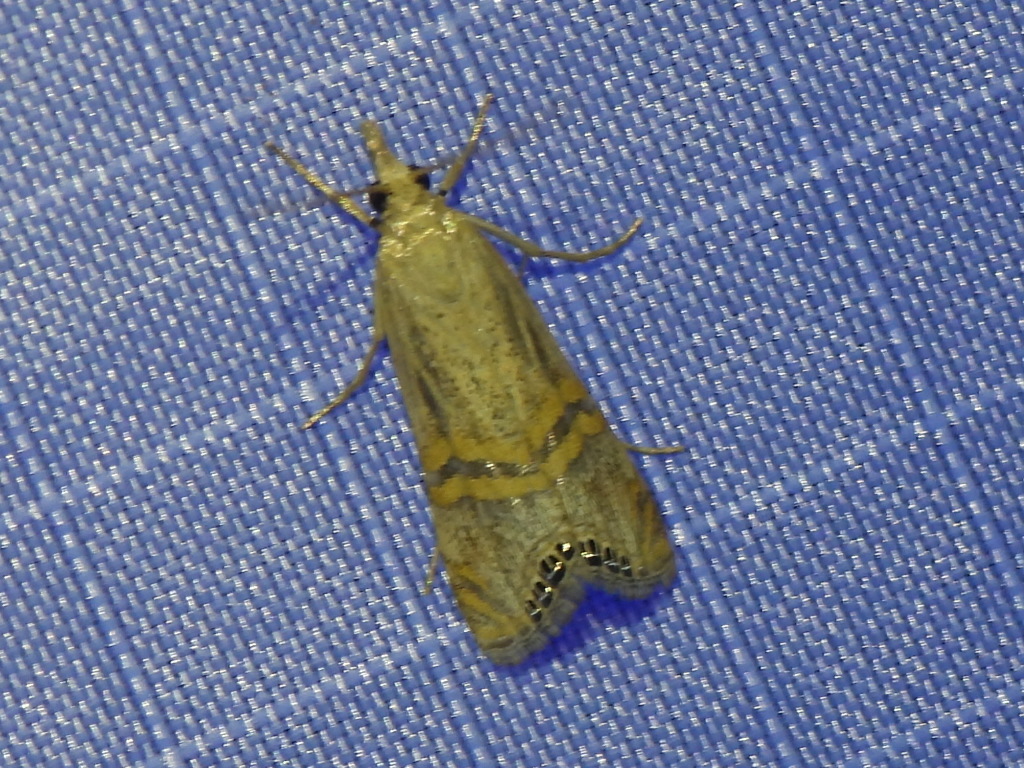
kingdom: Animalia
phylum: Arthropoda
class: Insecta
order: Lepidoptera
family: Crambidae
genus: Euchromius
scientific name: Euchromius ocellea
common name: Necklace veneer moth
